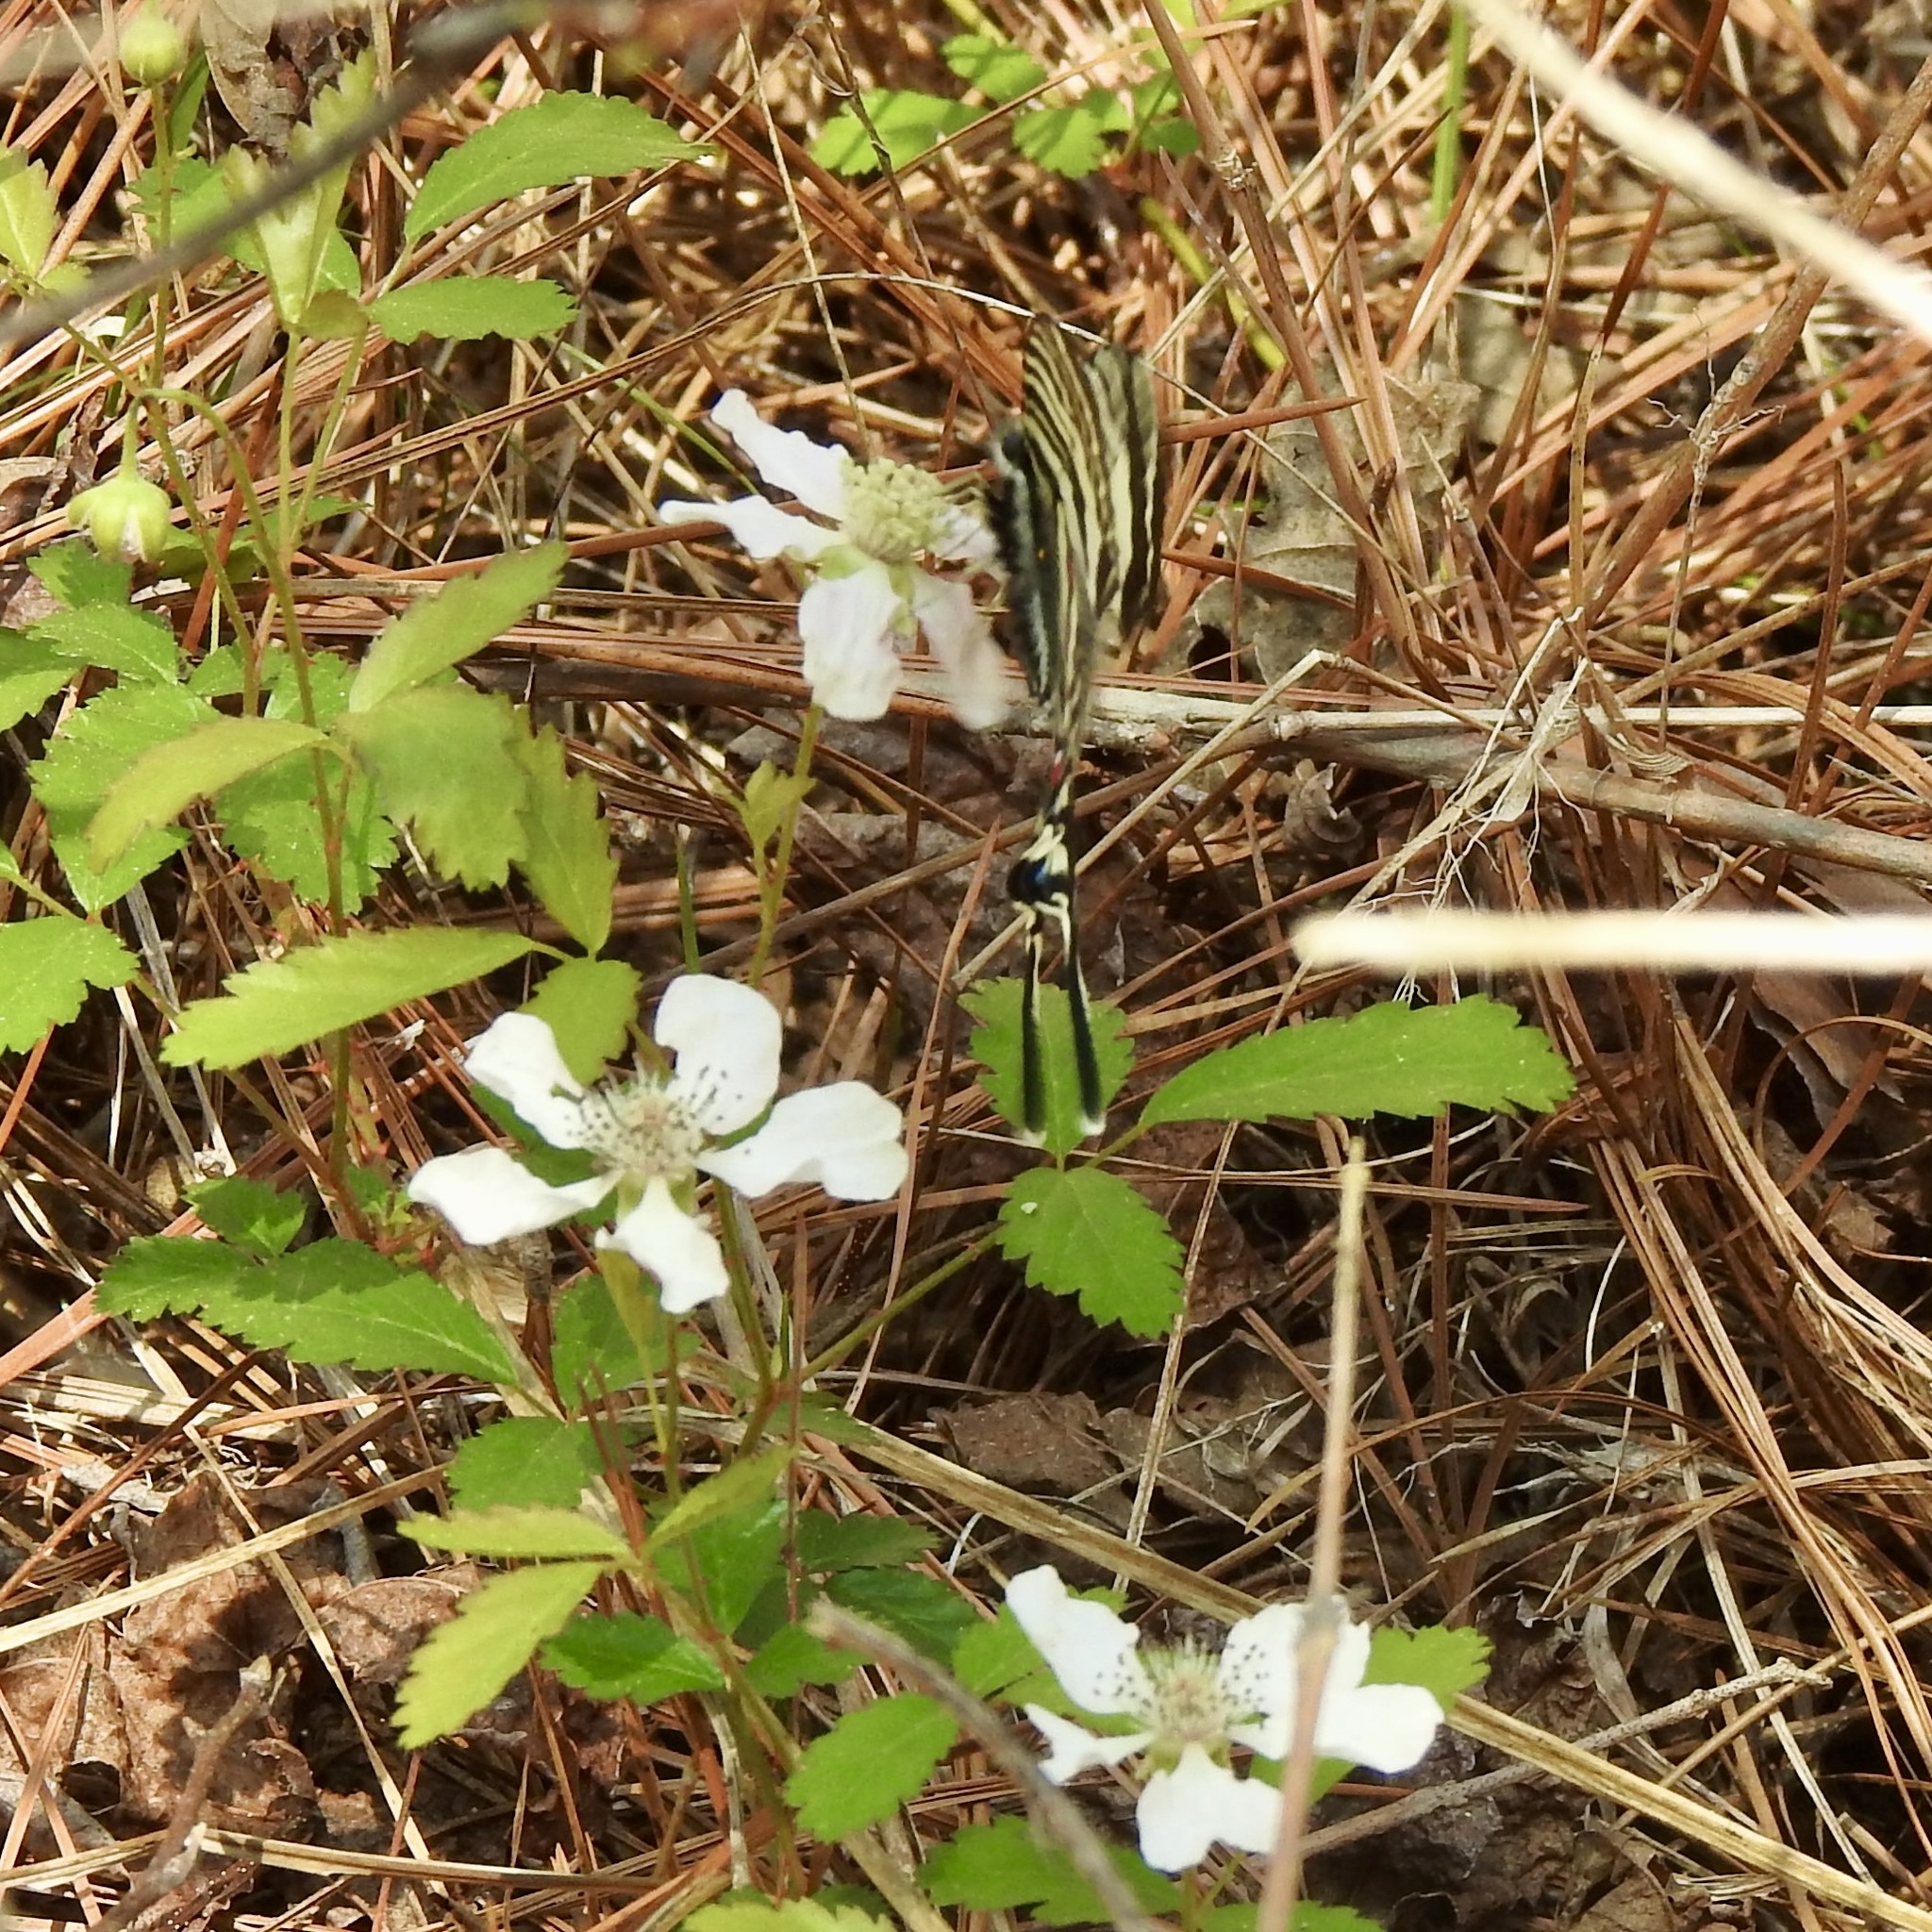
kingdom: Animalia
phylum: Arthropoda
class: Insecta
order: Lepidoptera
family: Papilionidae
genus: Protographium
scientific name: Protographium marcellus
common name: Zebra swallowtail
